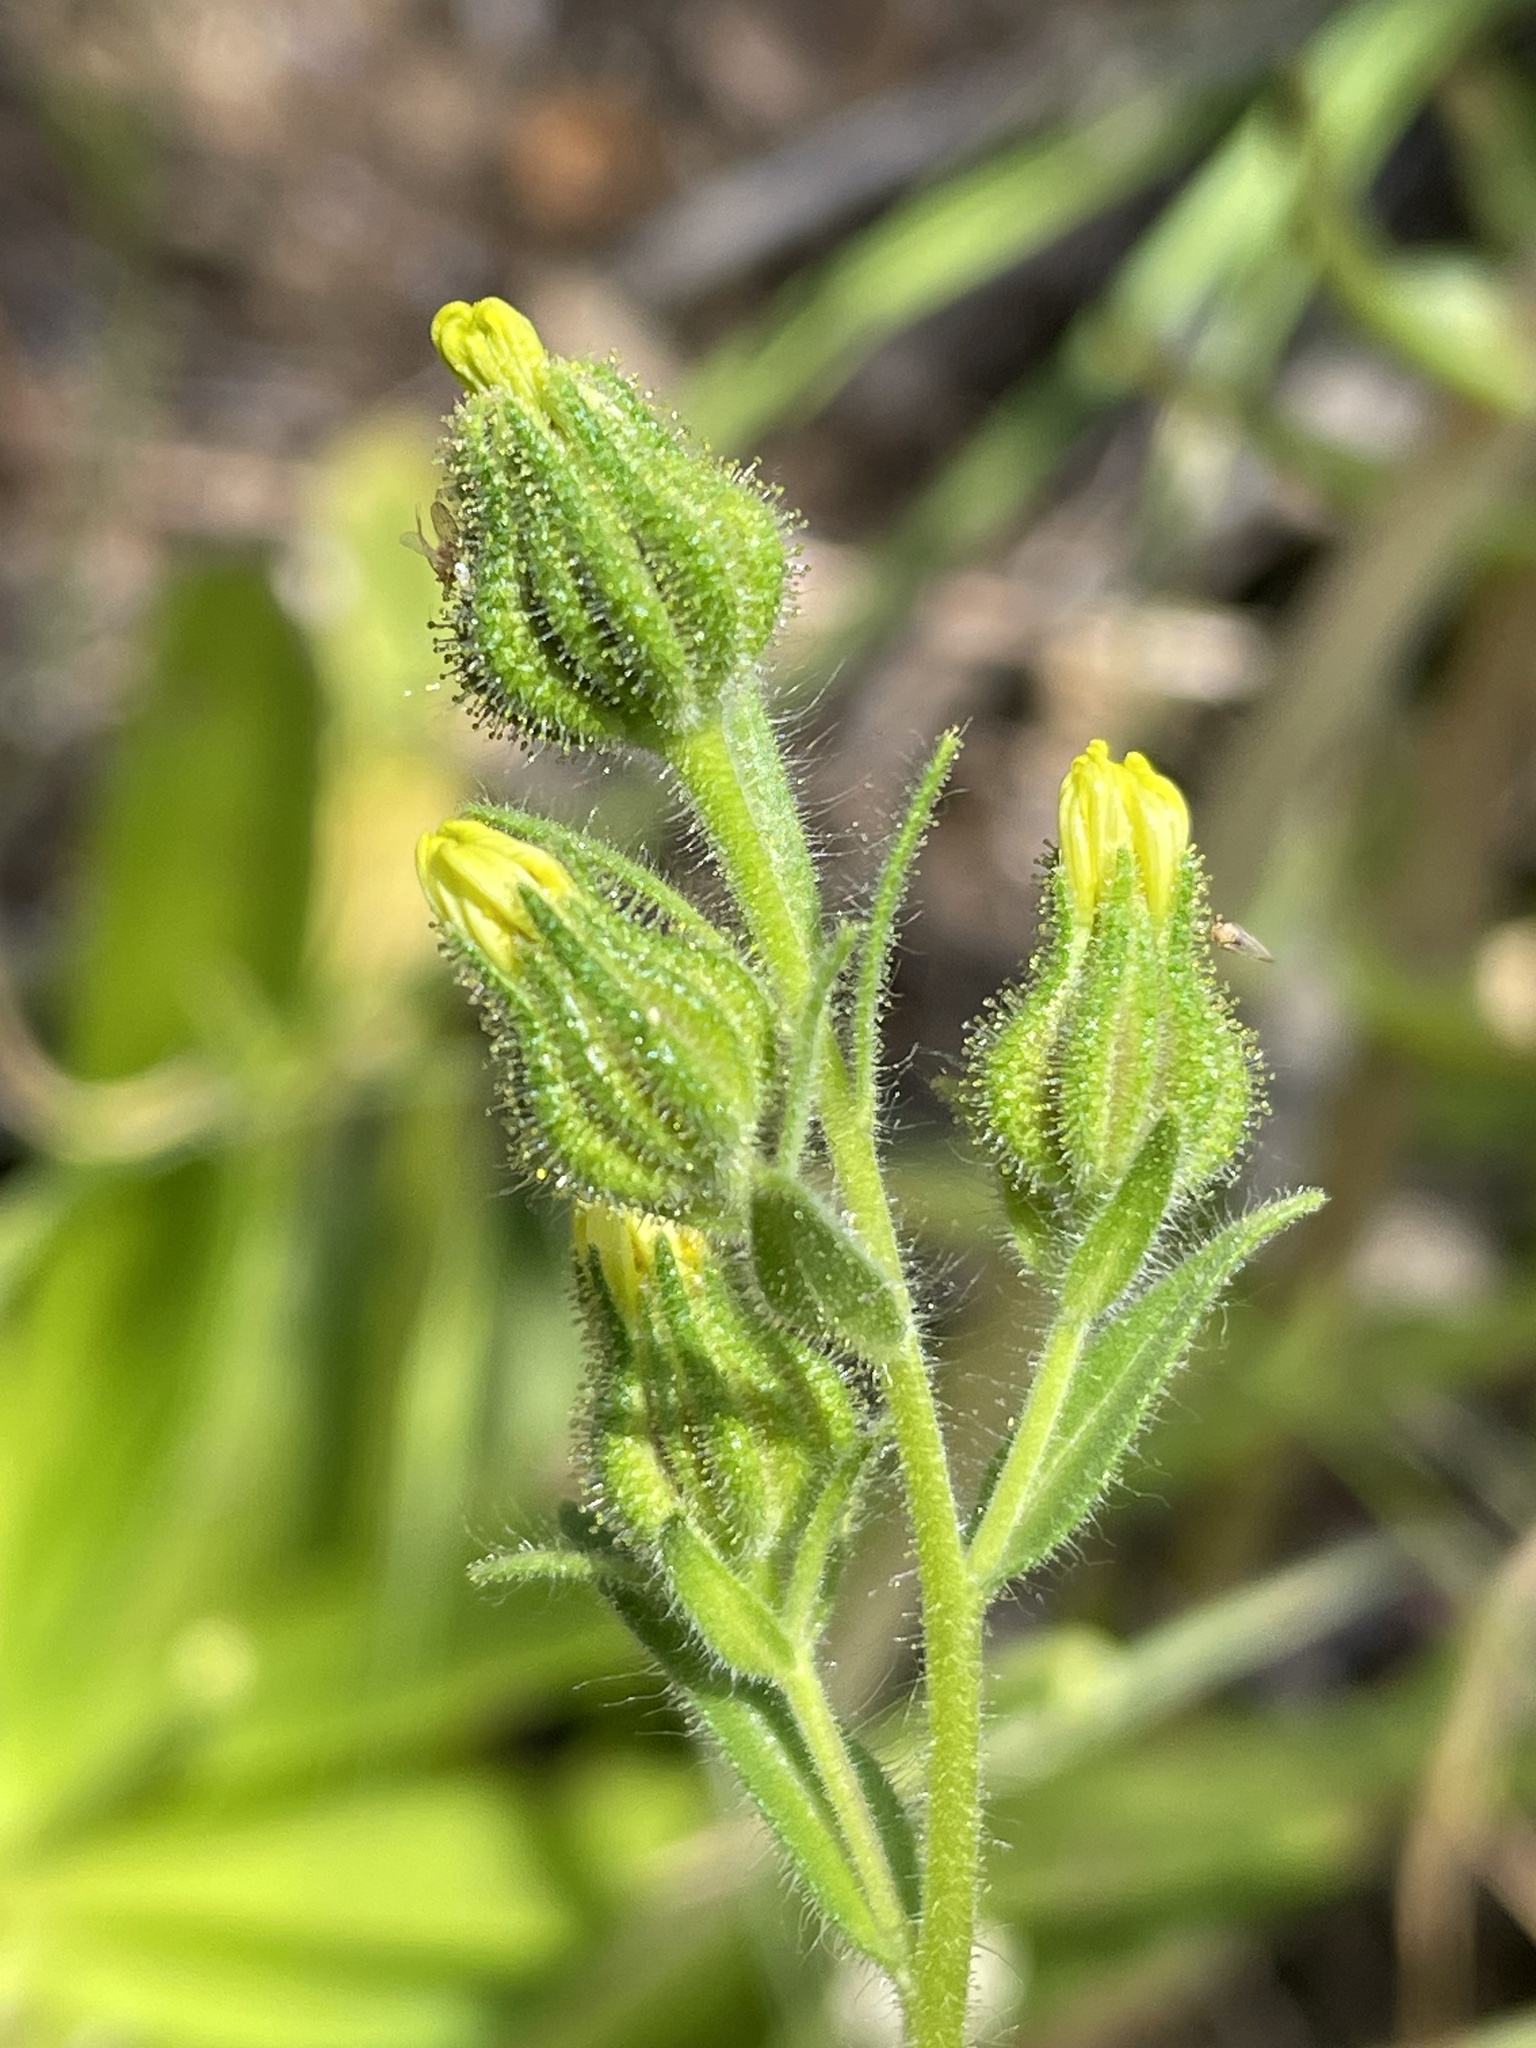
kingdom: Plantae
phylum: Tracheophyta
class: Magnoliopsida
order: Asterales
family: Asteraceae
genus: Madia
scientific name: Madia gracilis
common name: Grassy tarweed
